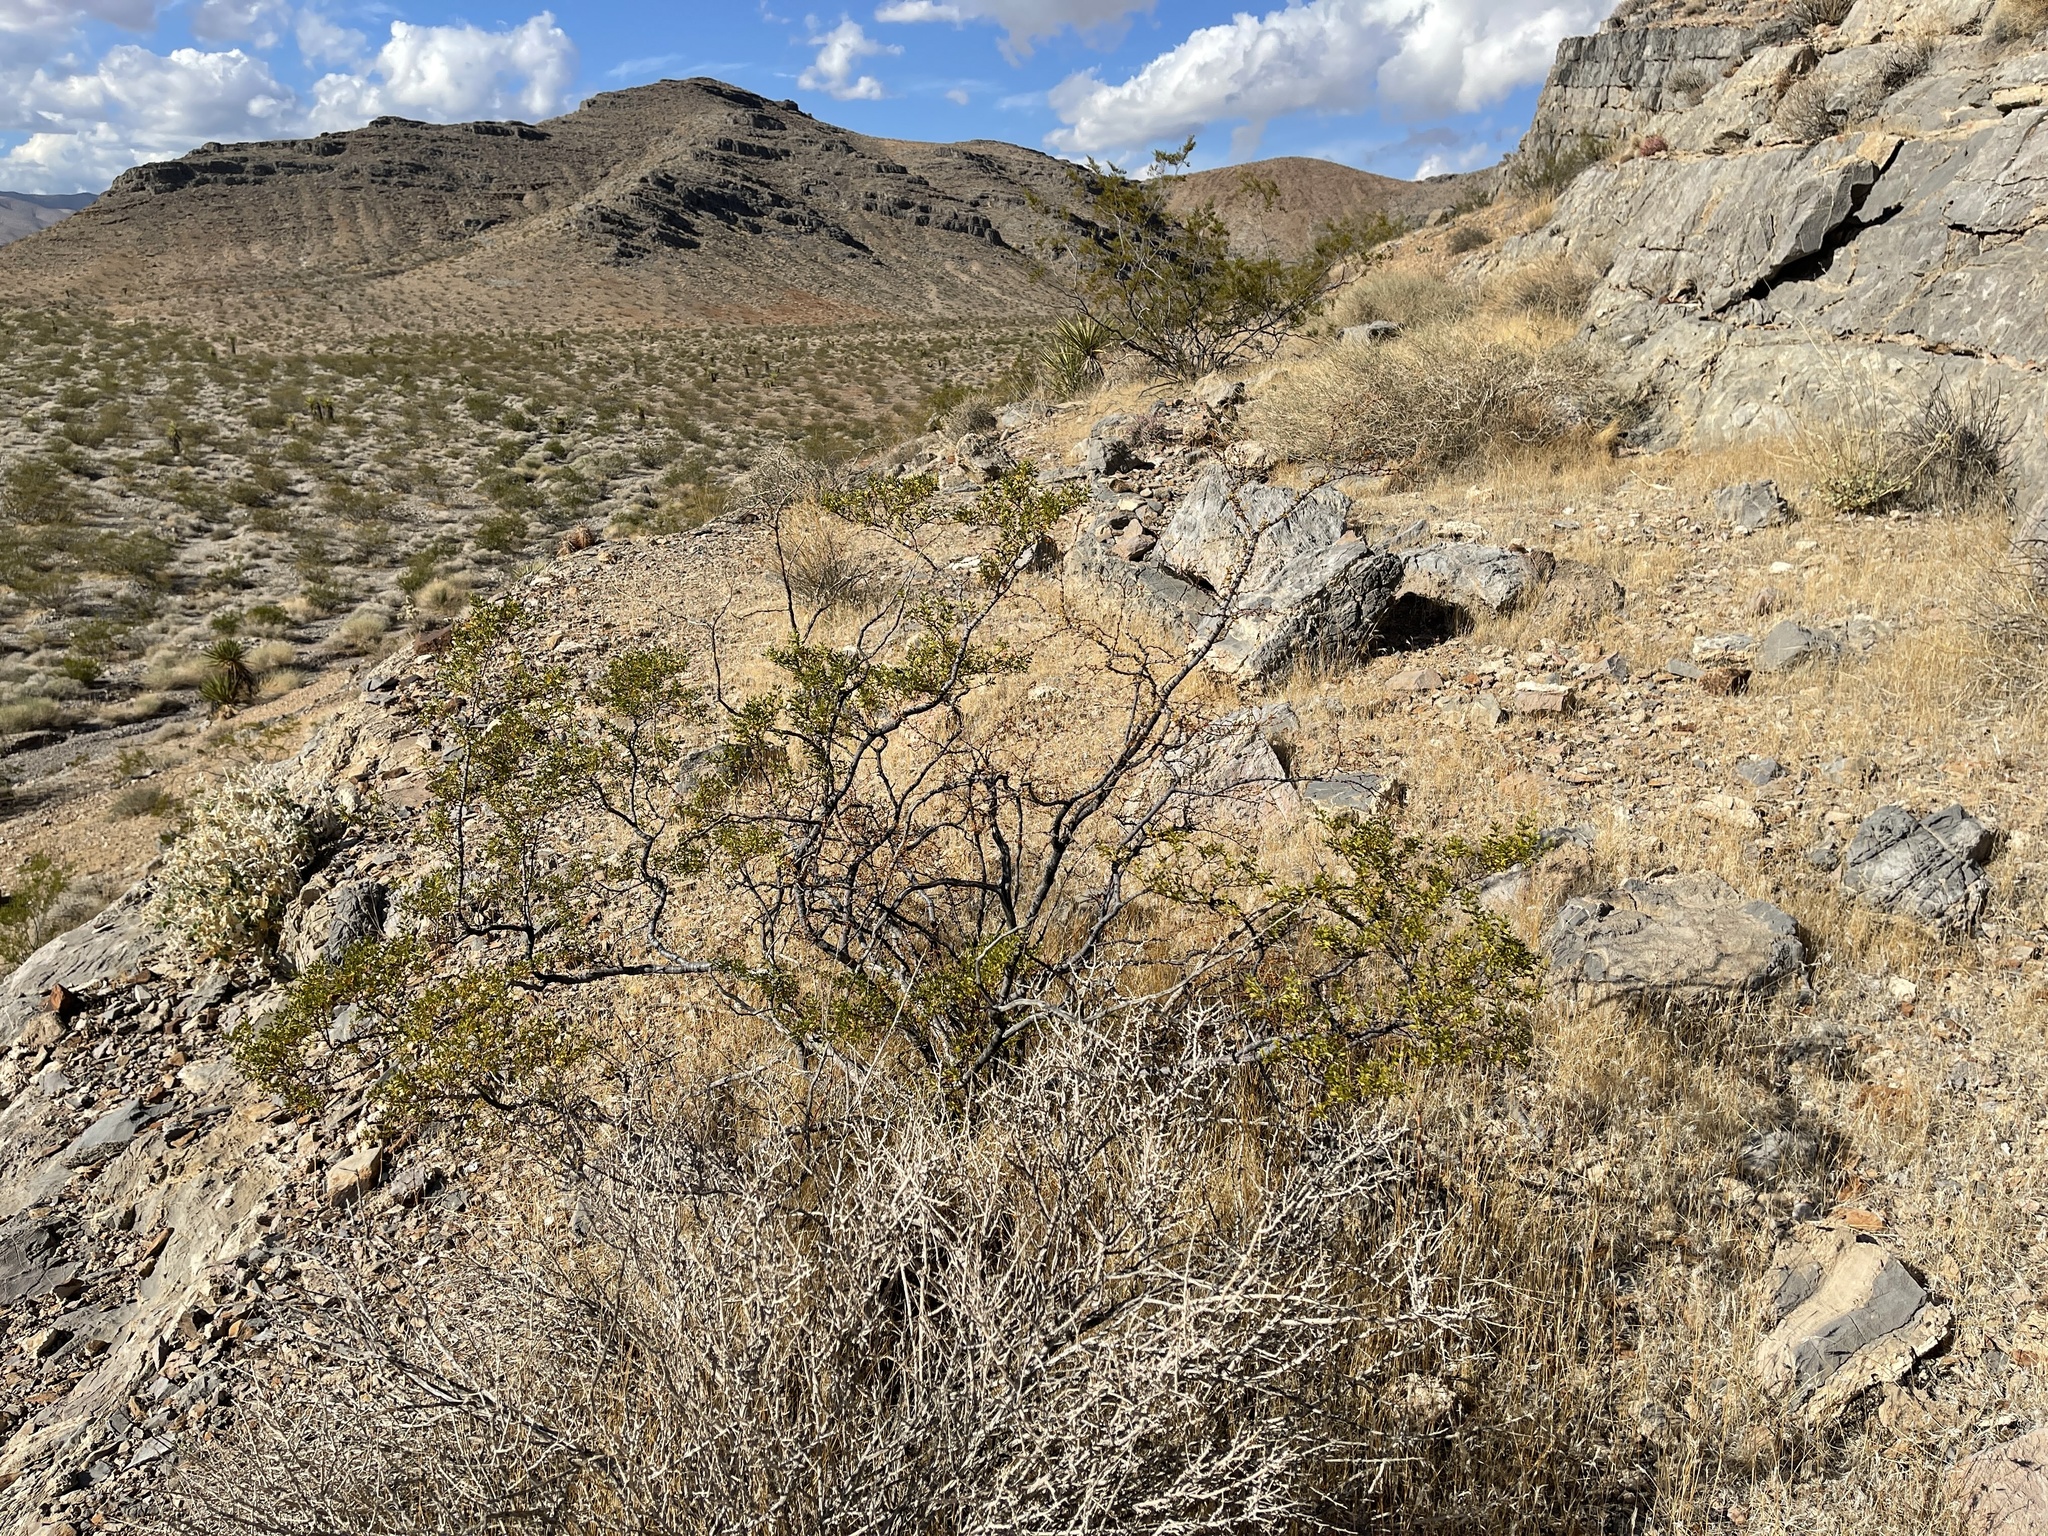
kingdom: Plantae
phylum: Tracheophyta
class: Magnoliopsida
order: Zygophyllales
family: Zygophyllaceae
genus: Larrea
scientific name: Larrea tridentata
